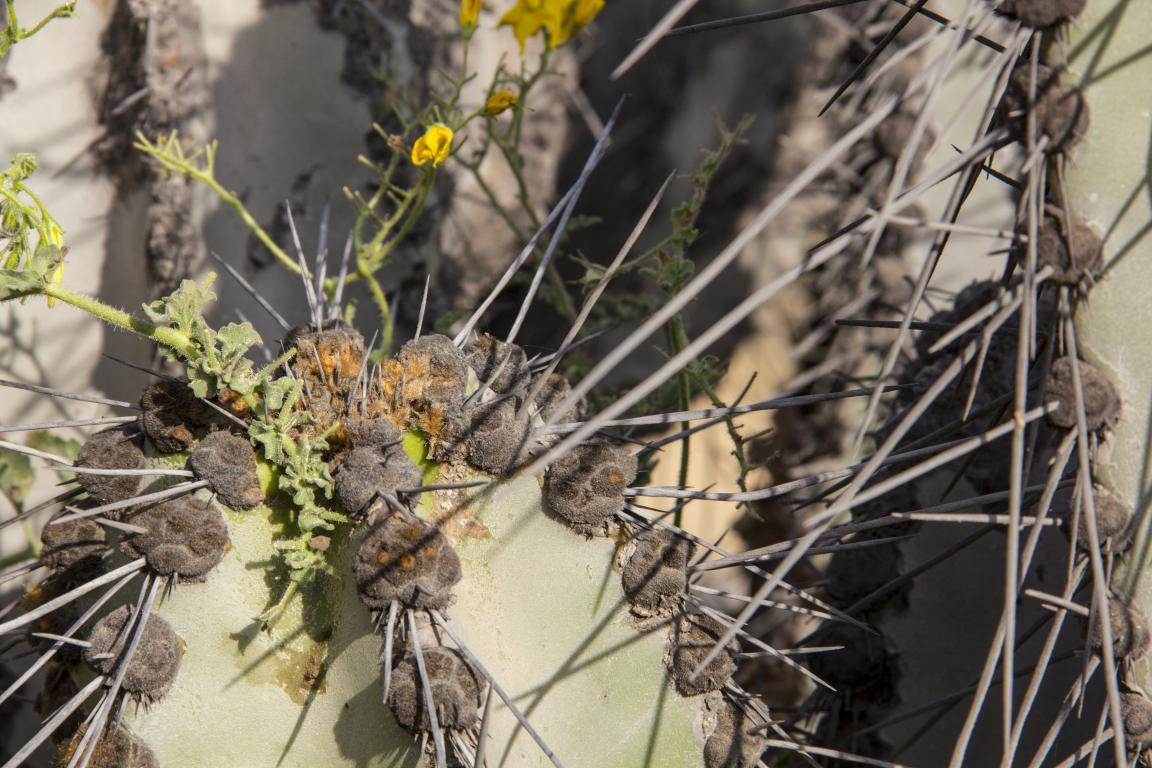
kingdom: Plantae
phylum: Tracheophyta
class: Magnoliopsida
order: Caryophyllales
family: Cactaceae
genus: Neoraimondia
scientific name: Neoraimondia arequipensis
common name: Big-bed-of-straw
